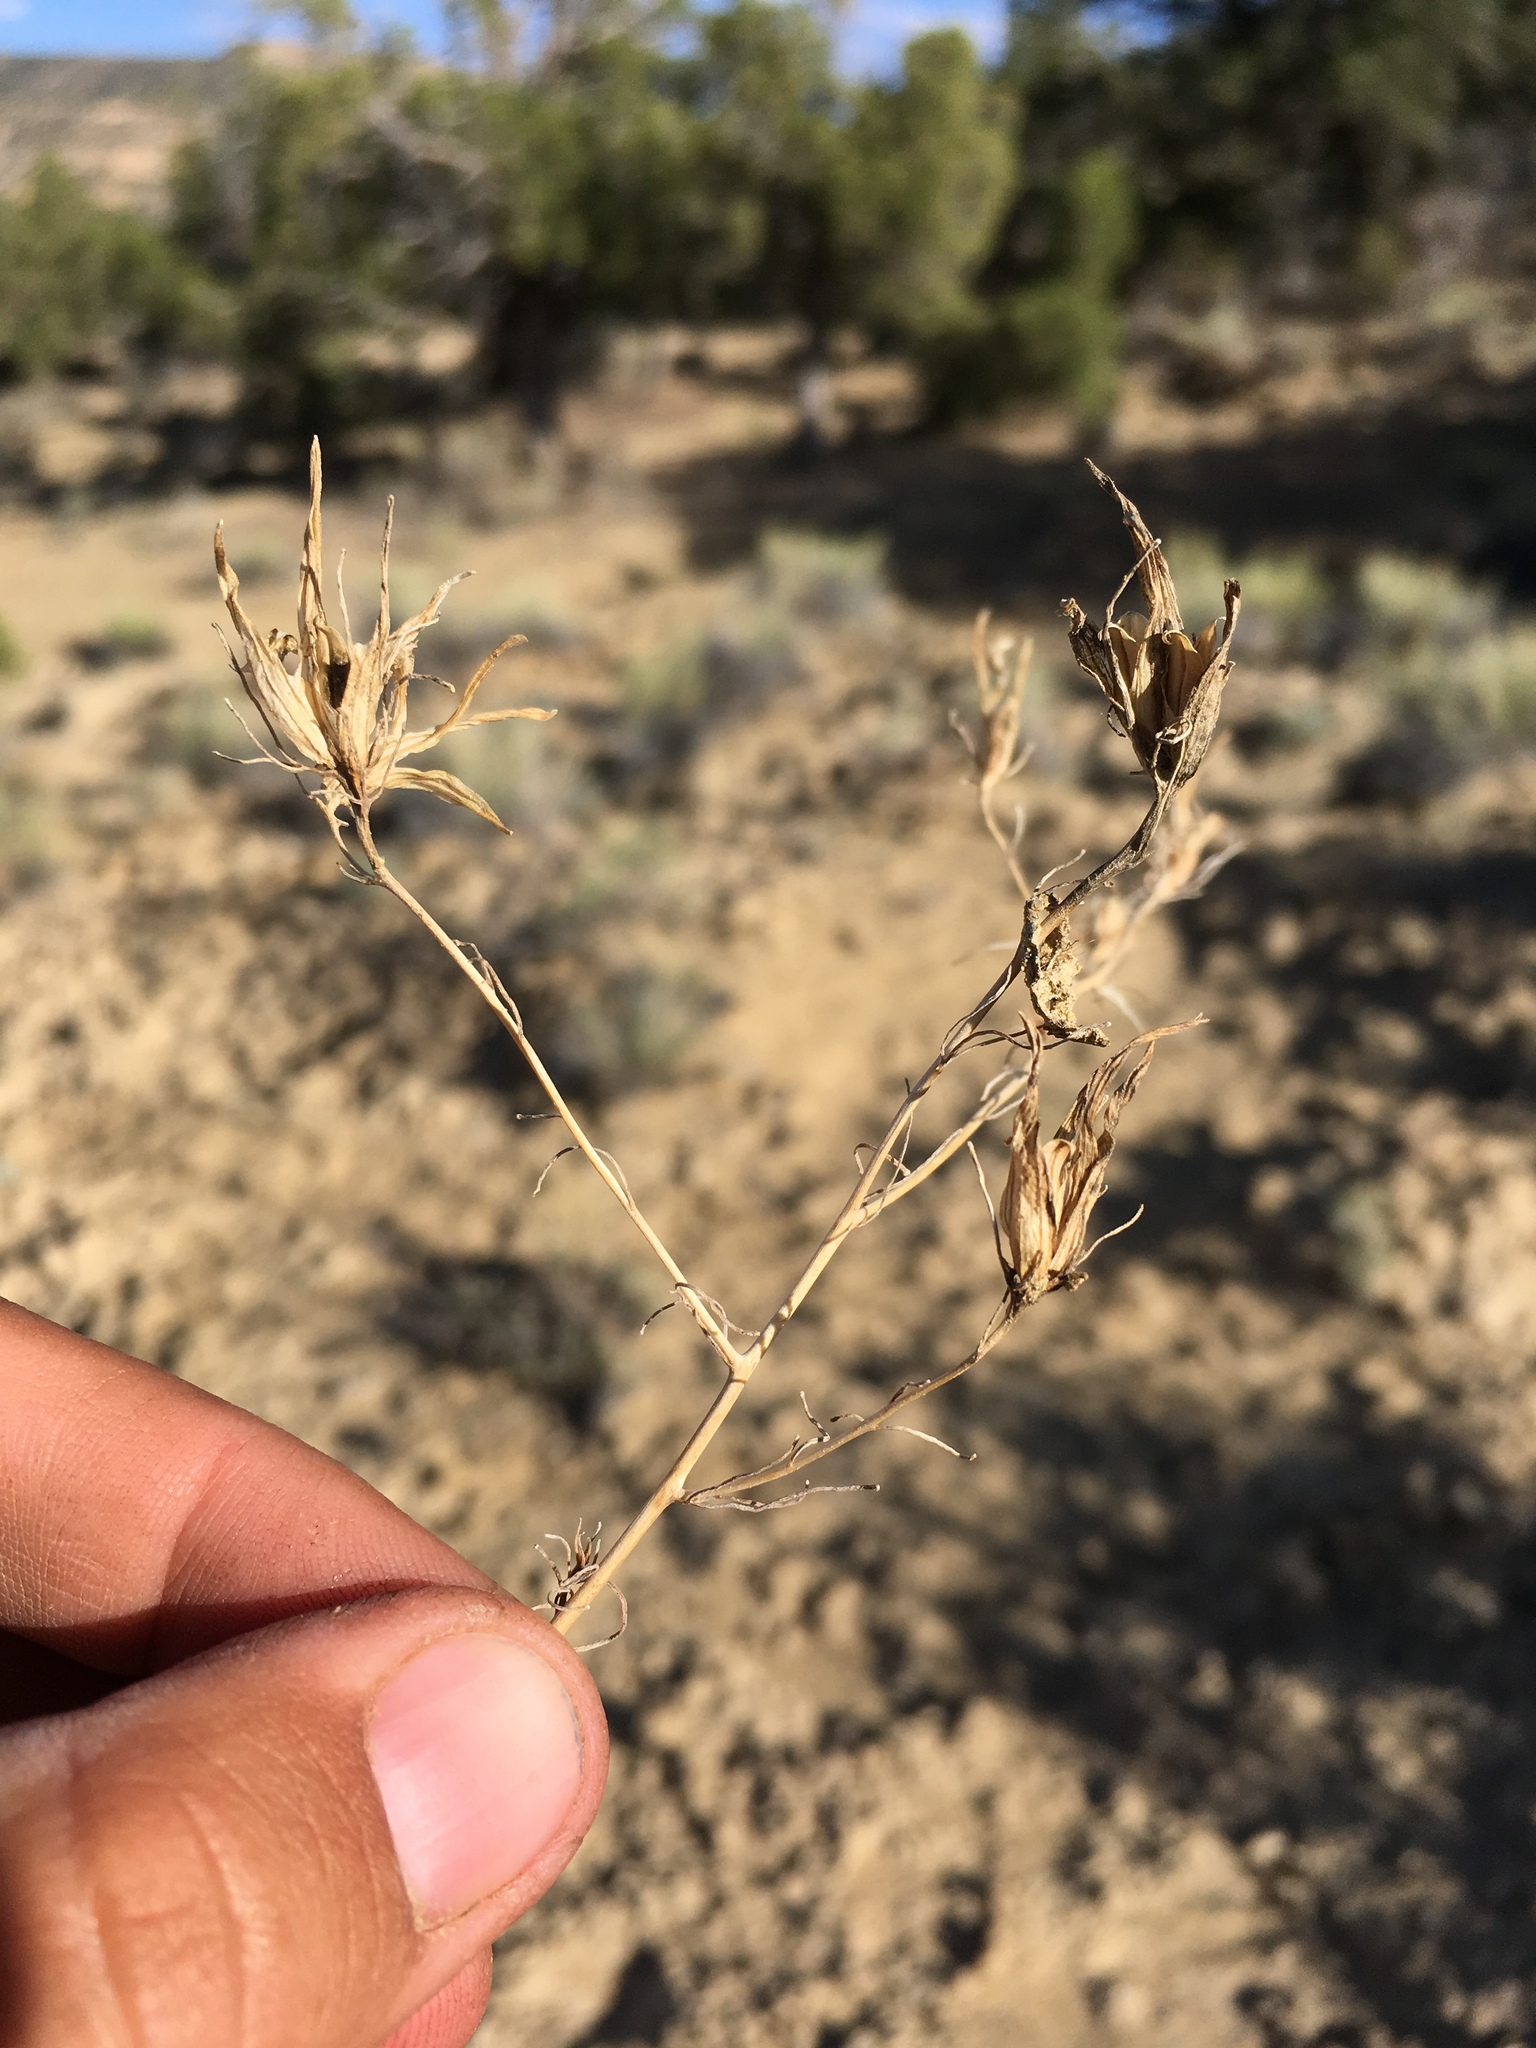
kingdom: Plantae
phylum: Tracheophyta
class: Magnoliopsida
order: Lamiales
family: Orobanchaceae
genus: Cordylanthus
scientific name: Cordylanthus wrightii
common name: Wright's birdsbeak
